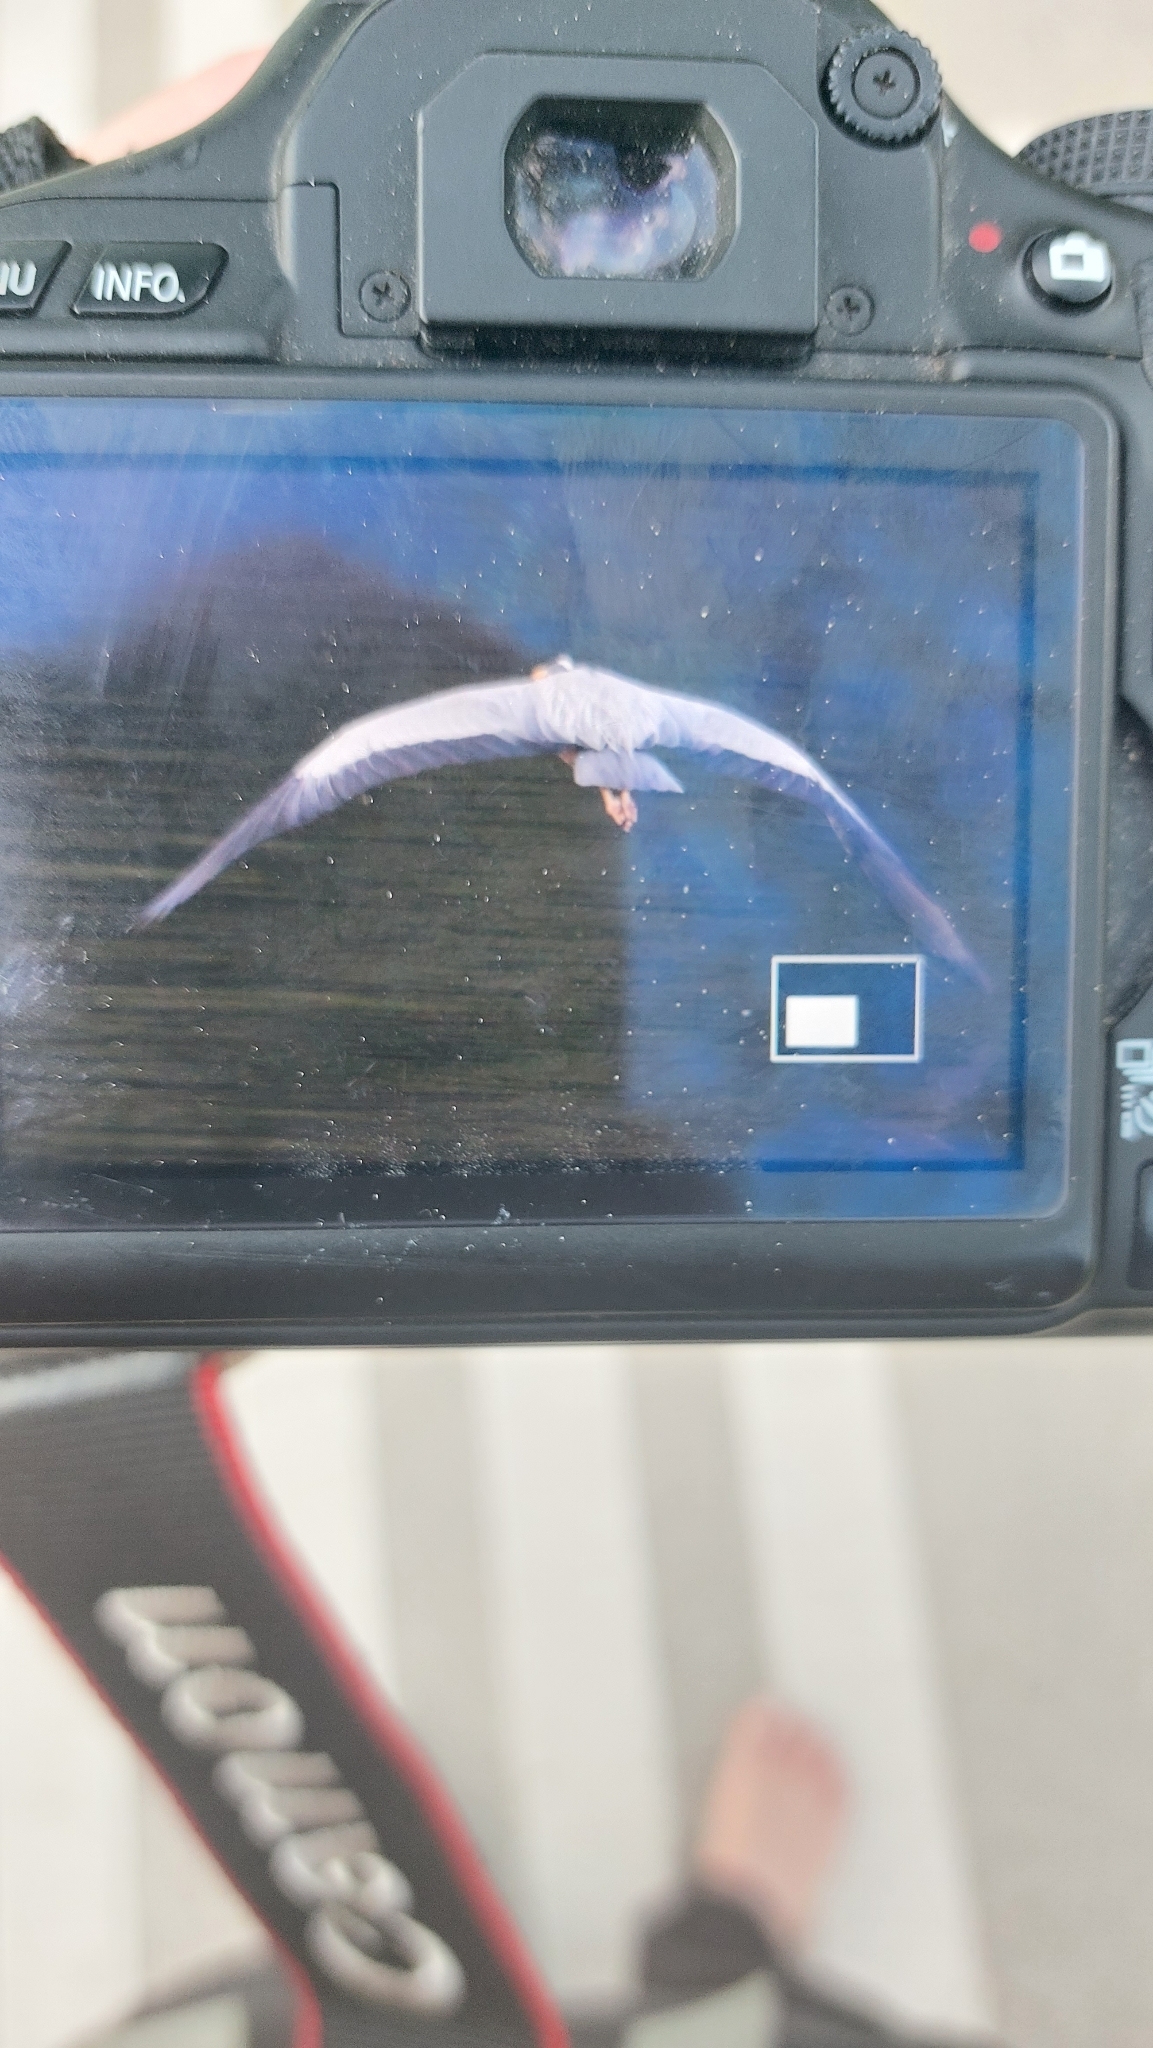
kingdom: Animalia
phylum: Chordata
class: Aves
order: Pelecaniformes
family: Ardeidae
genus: Ardea
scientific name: Ardea cinerea
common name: Grey heron
